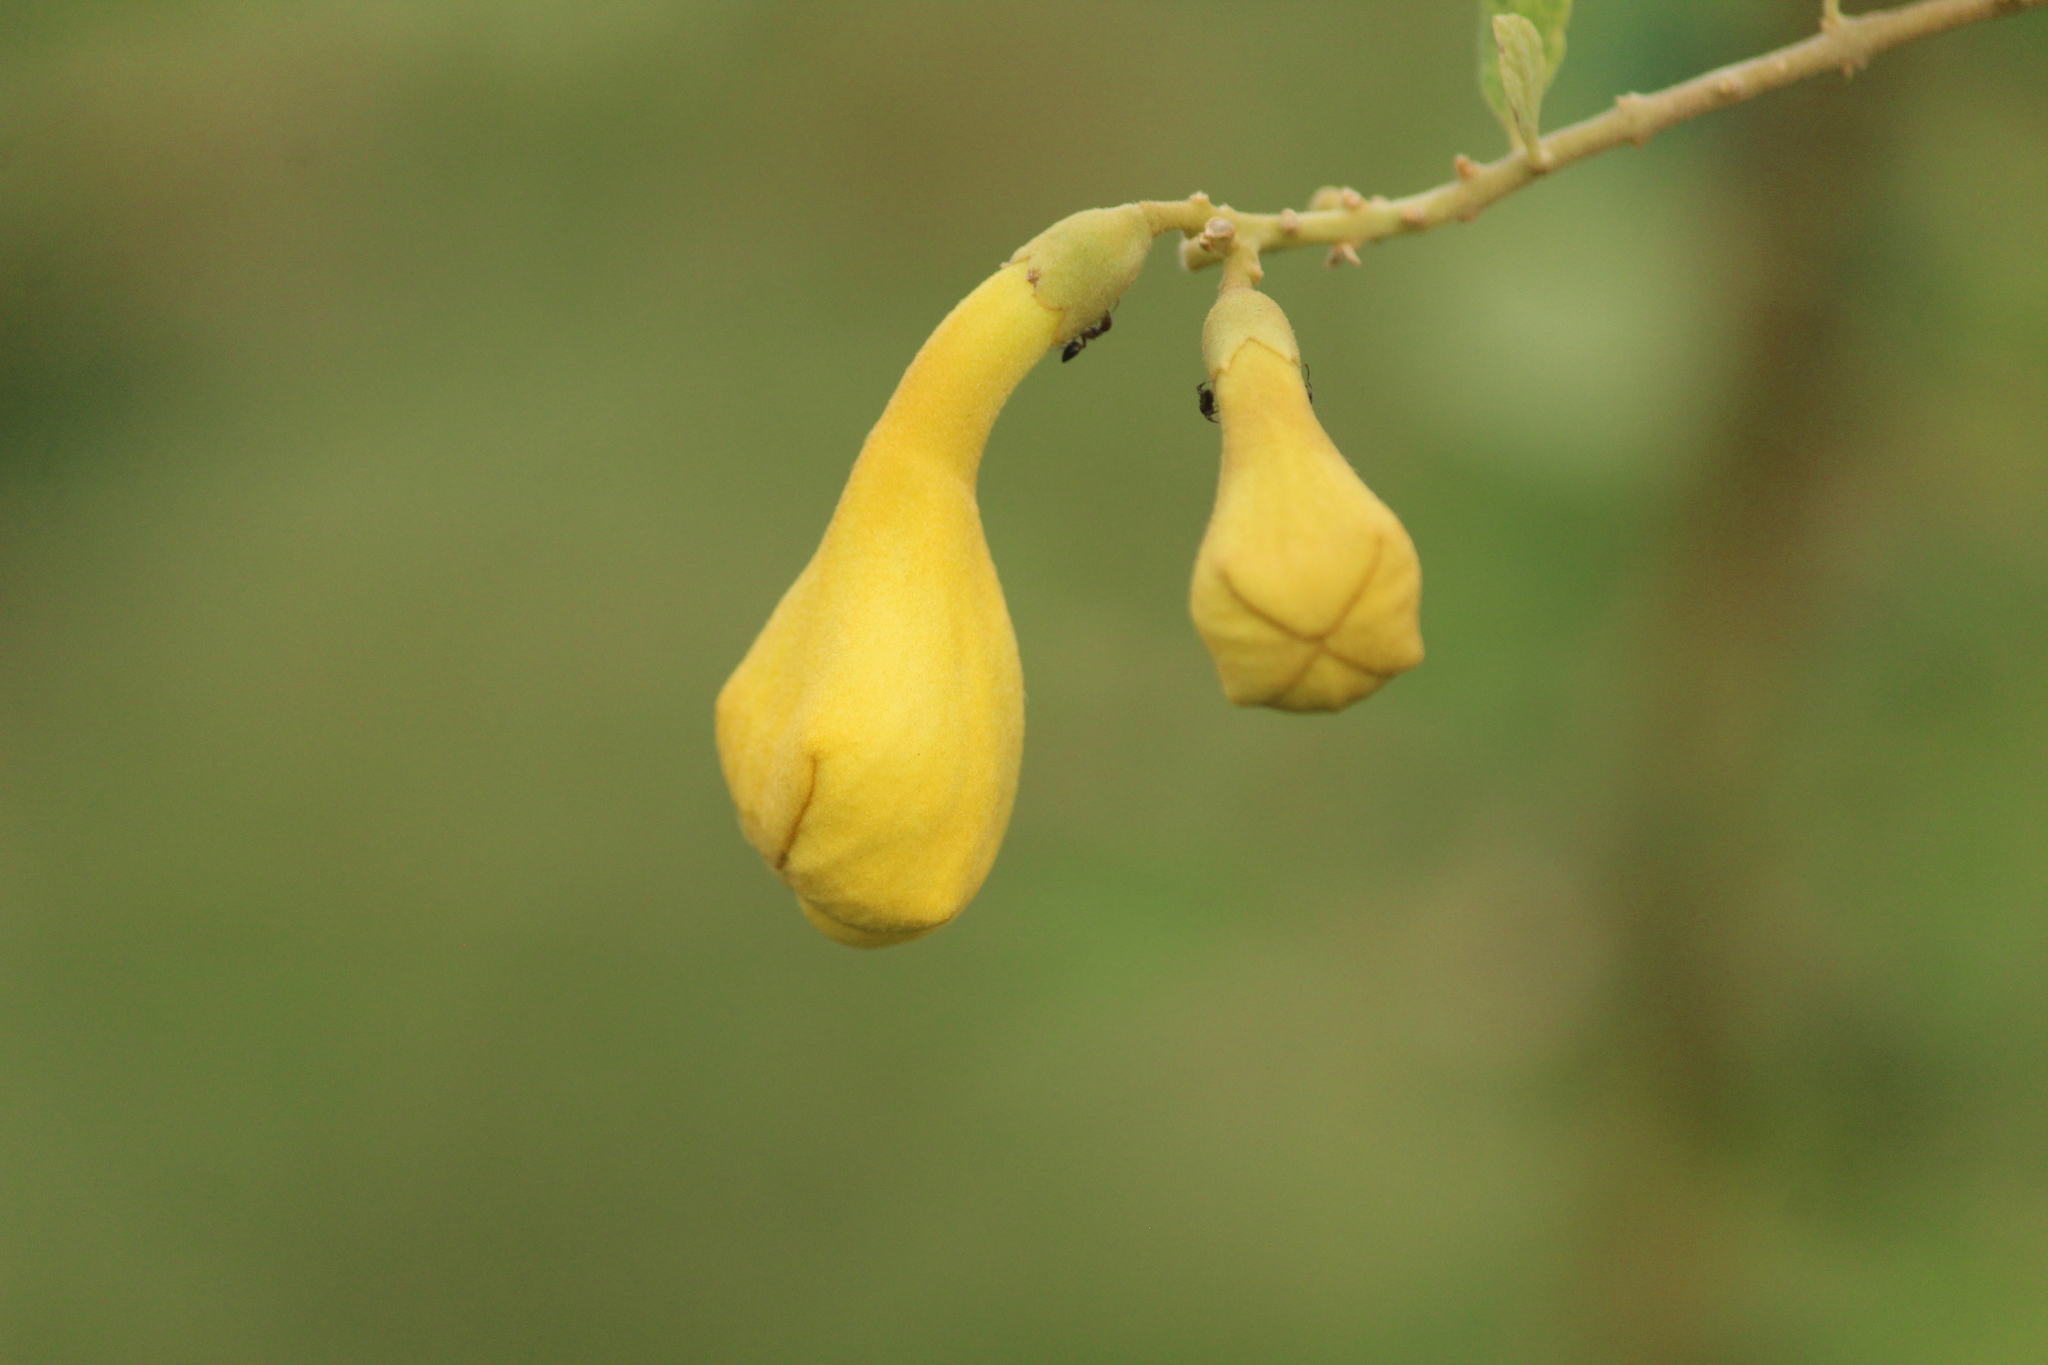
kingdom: Plantae
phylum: Tracheophyta
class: Magnoliopsida
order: Lamiales
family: Lamiaceae
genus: Gmelina
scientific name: Gmelina asiatica
